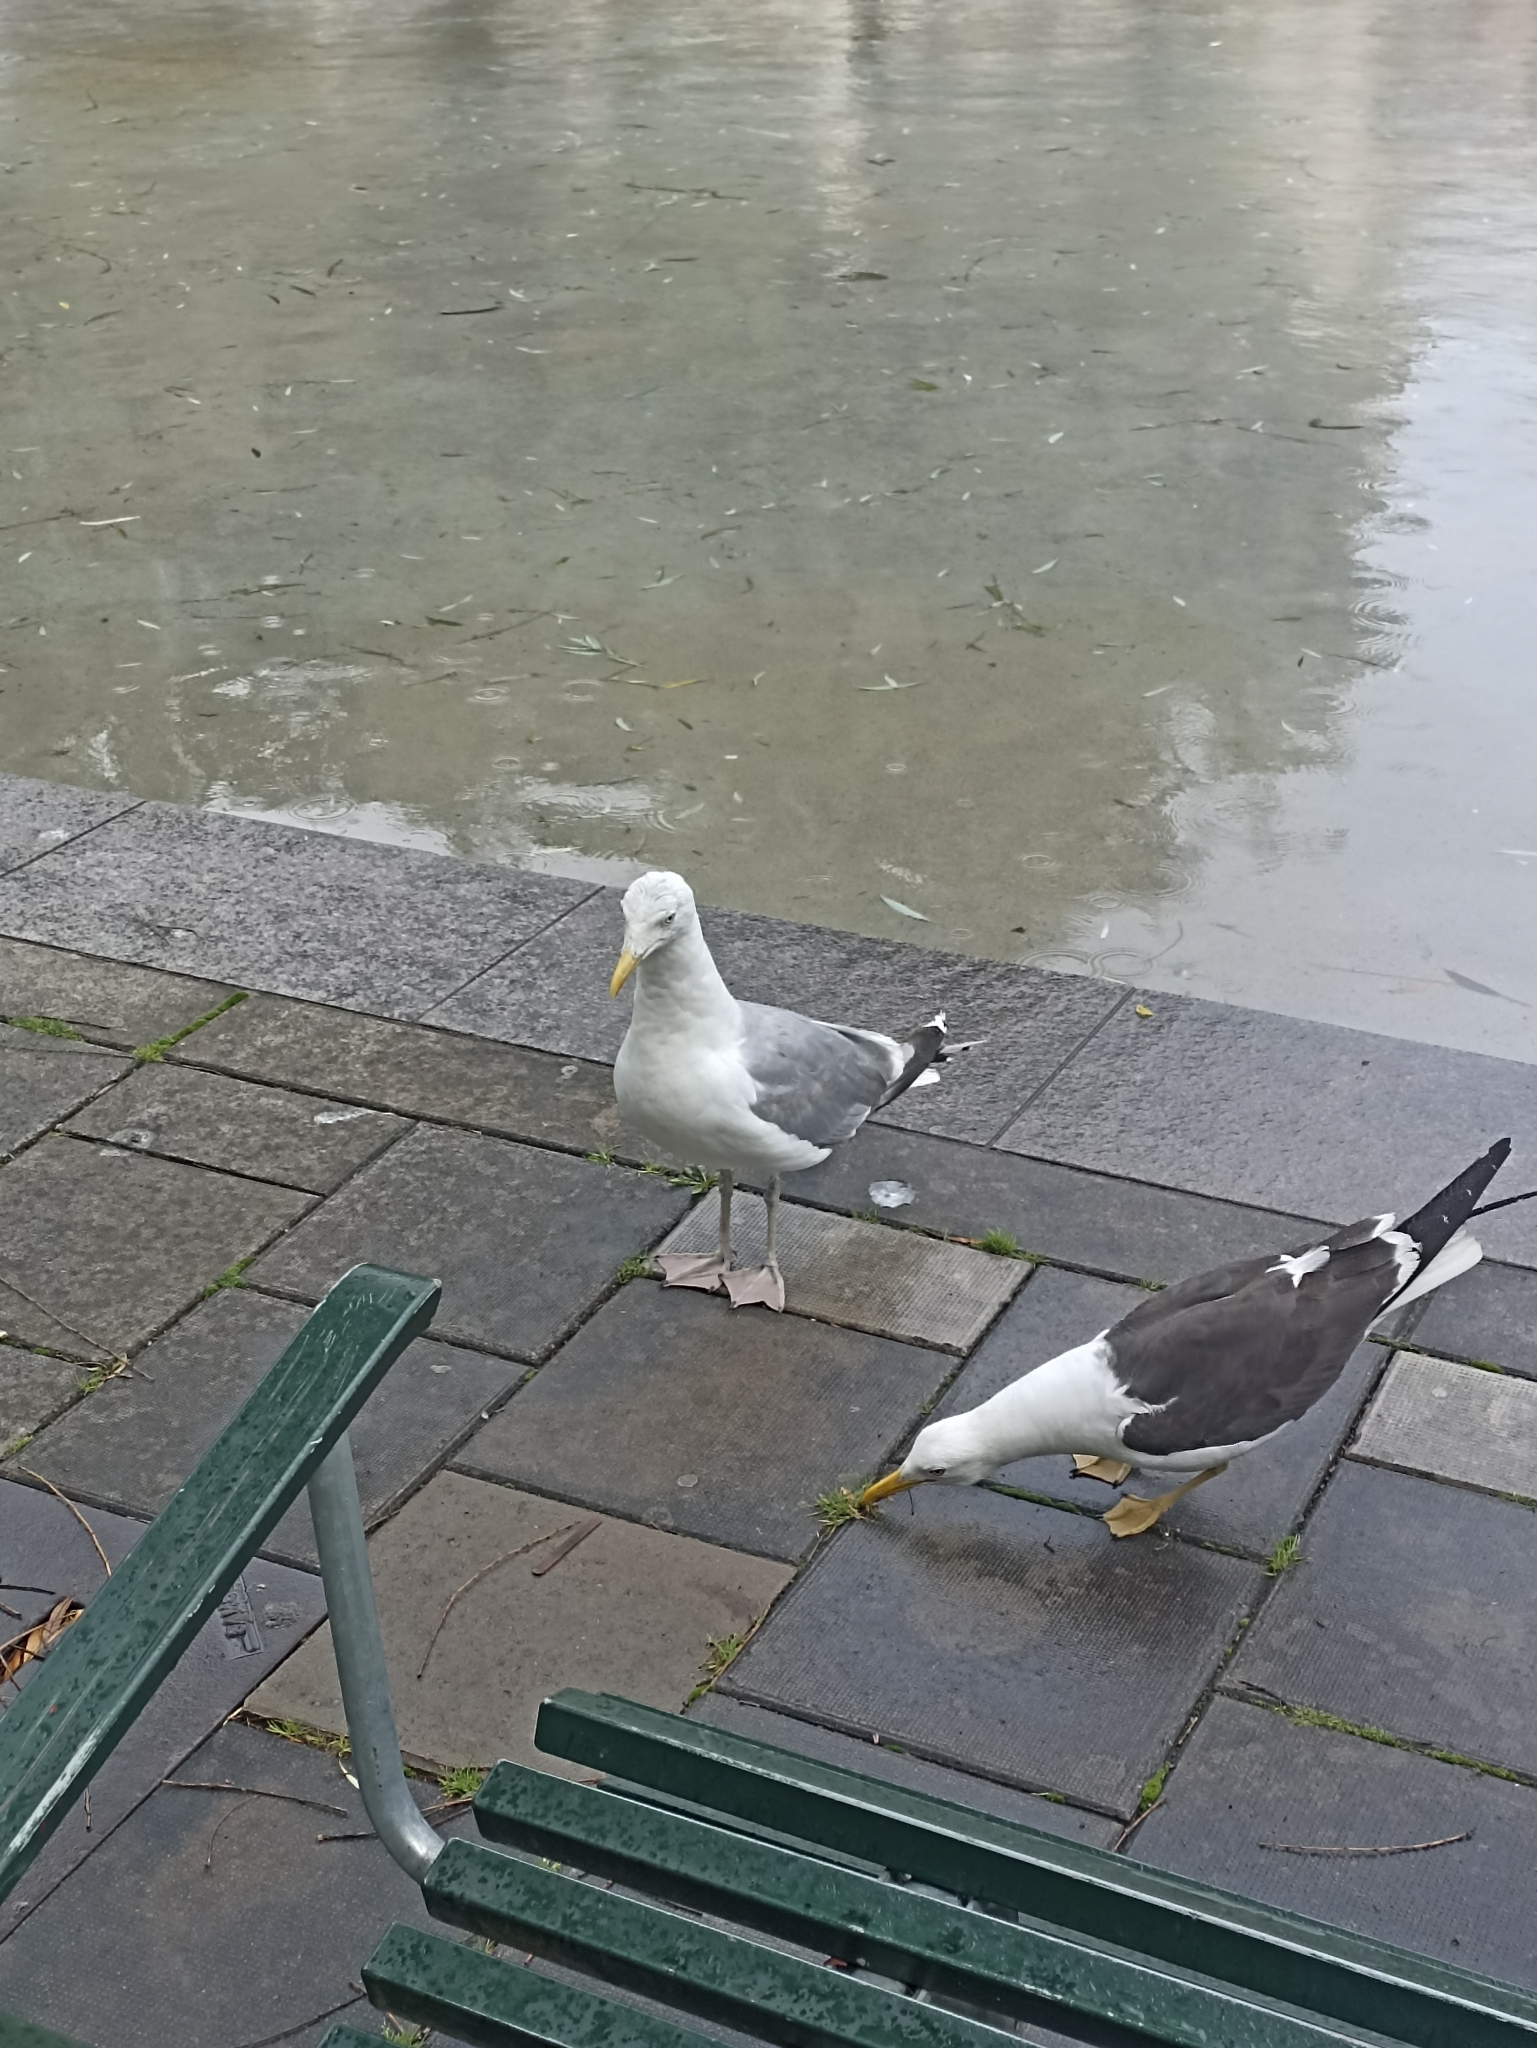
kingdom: Animalia
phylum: Chordata
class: Aves
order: Charadriiformes
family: Laridae
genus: Larus
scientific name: Larus argentatus
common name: Herring gull
